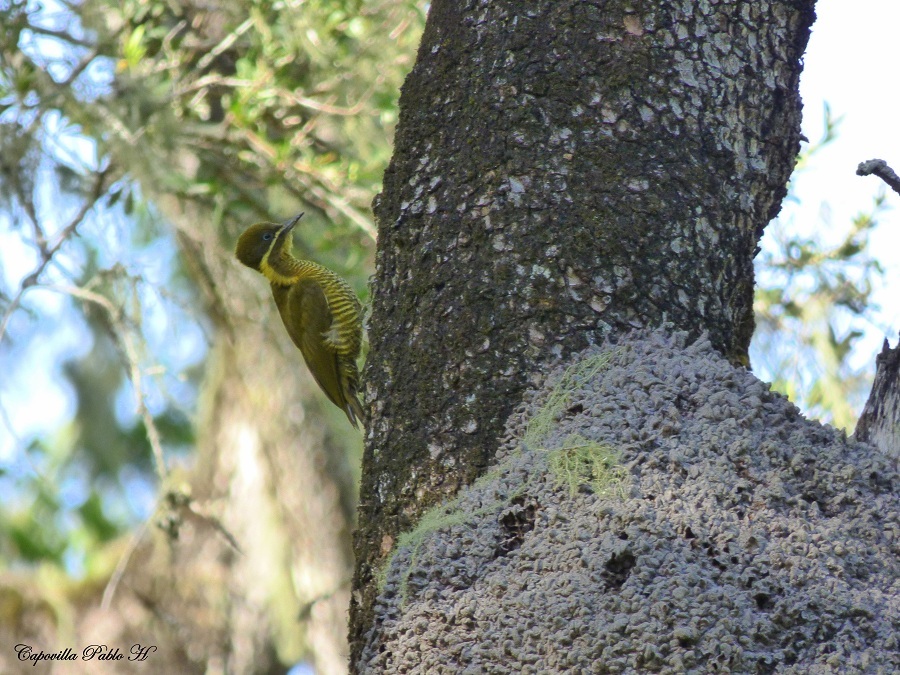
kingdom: Animalia
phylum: Chordata
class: Aves
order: Piciformes
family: Picidae
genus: Piculus
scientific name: Piculus chrysochloros
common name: Golden-green woodpecker
